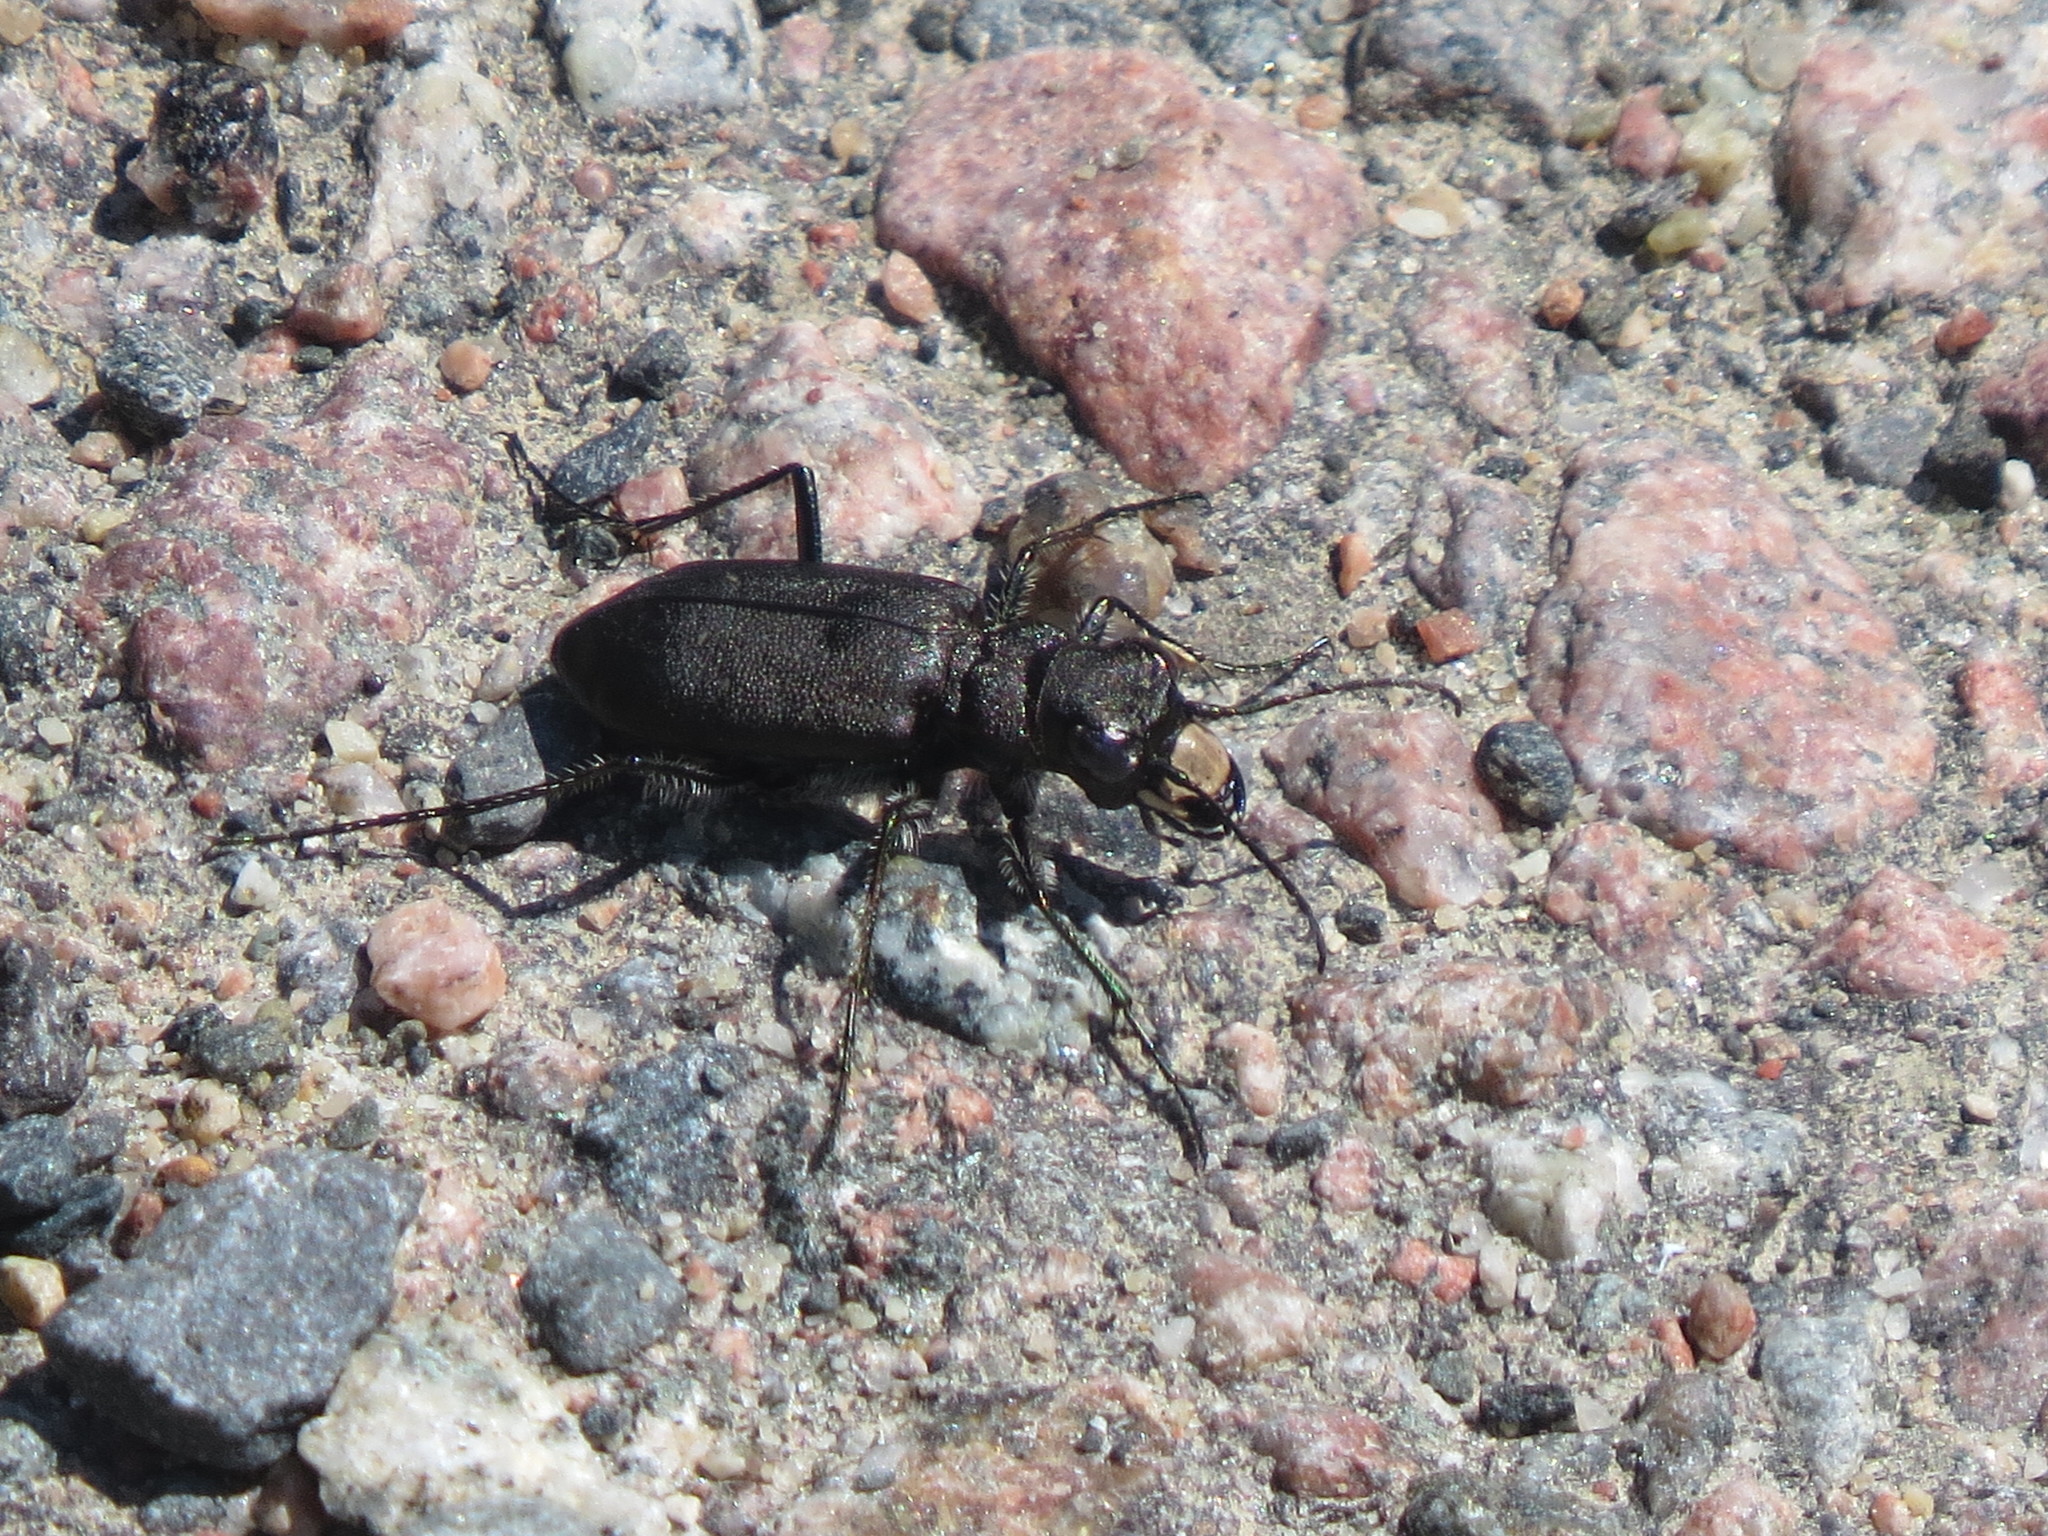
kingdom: Animalia
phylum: Arthropoda
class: Insecta
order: Coleoptera
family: Carabidae
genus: Cicindela
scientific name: Cicindela longilabris
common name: Boreal long-lipped tiger beetle
